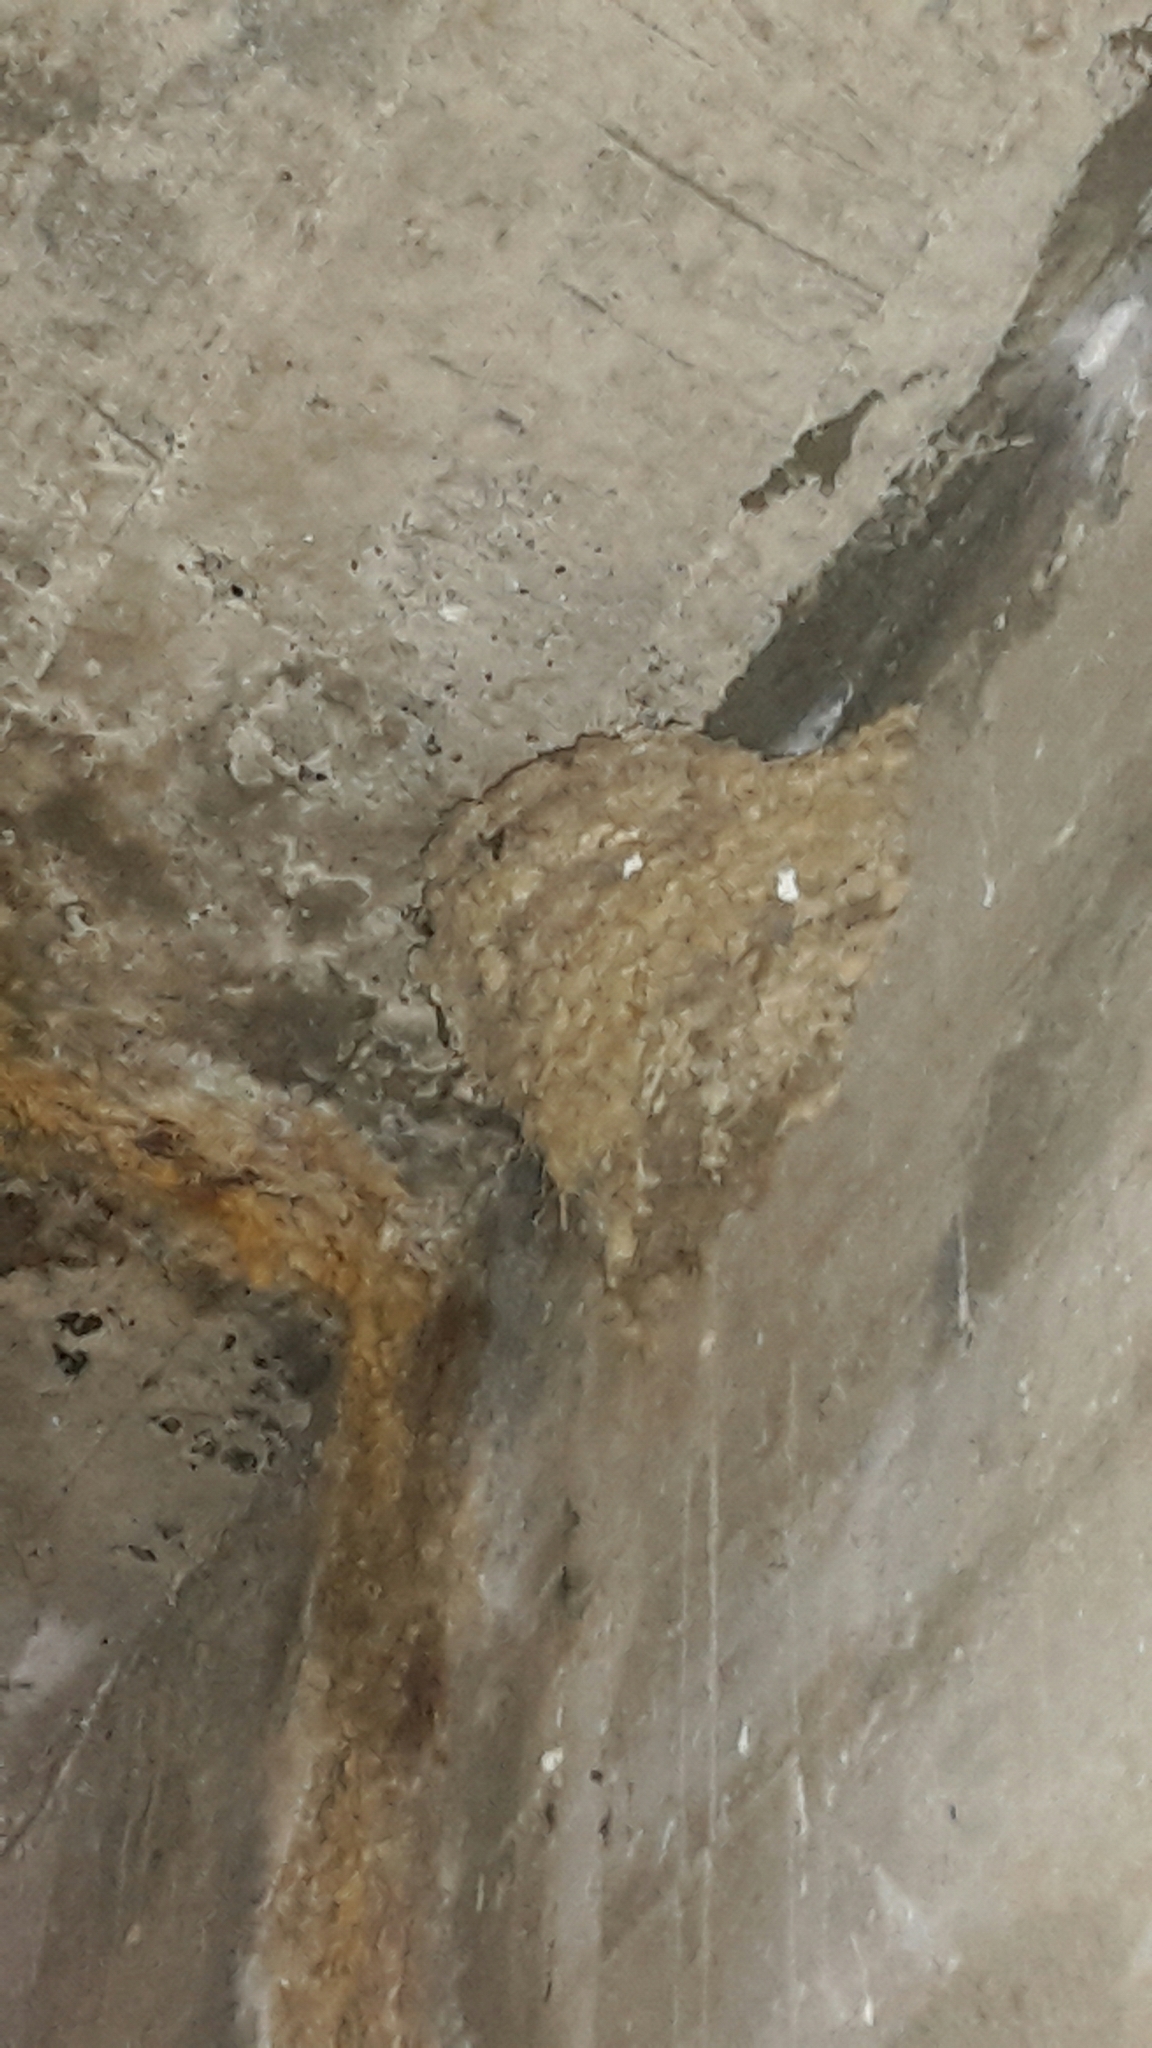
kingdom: Animalia
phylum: Chordata
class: Aves
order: Passeriformes
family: Hirundinidae
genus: Hirundo
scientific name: Hirundo neoxena
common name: Welcome swallow
